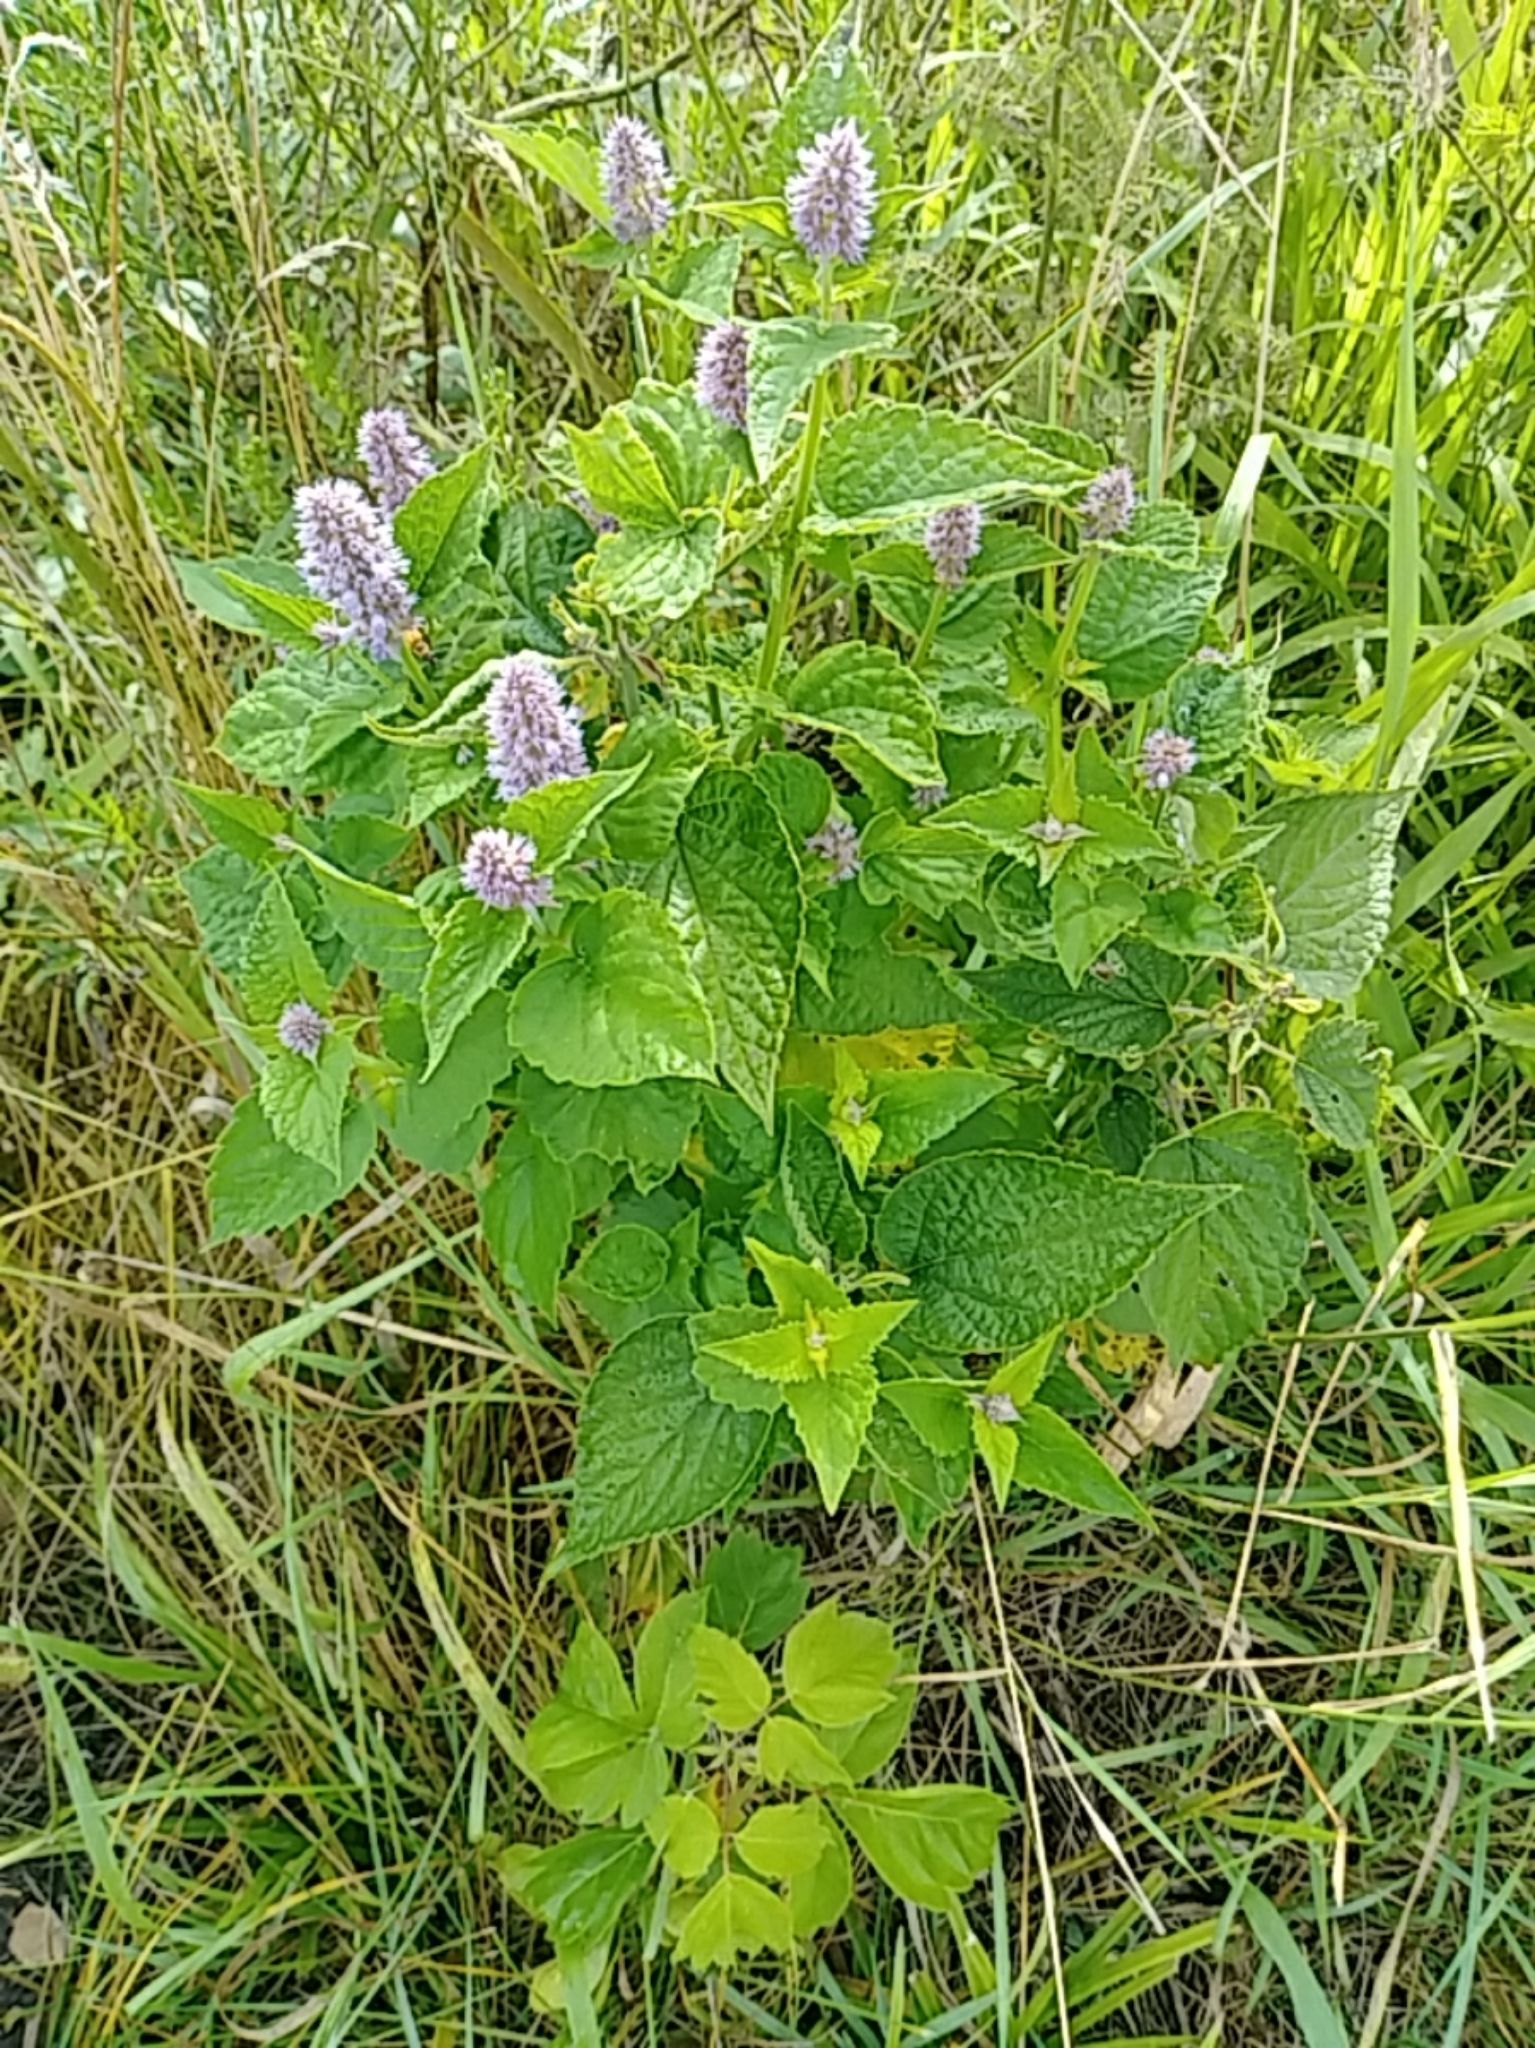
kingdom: Plantae
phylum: Tracheophyta
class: Magnoliopsida
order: Lamiales
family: Lamiaceae
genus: Agastache
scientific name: Agastache foeniculum
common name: Anise hyssop
